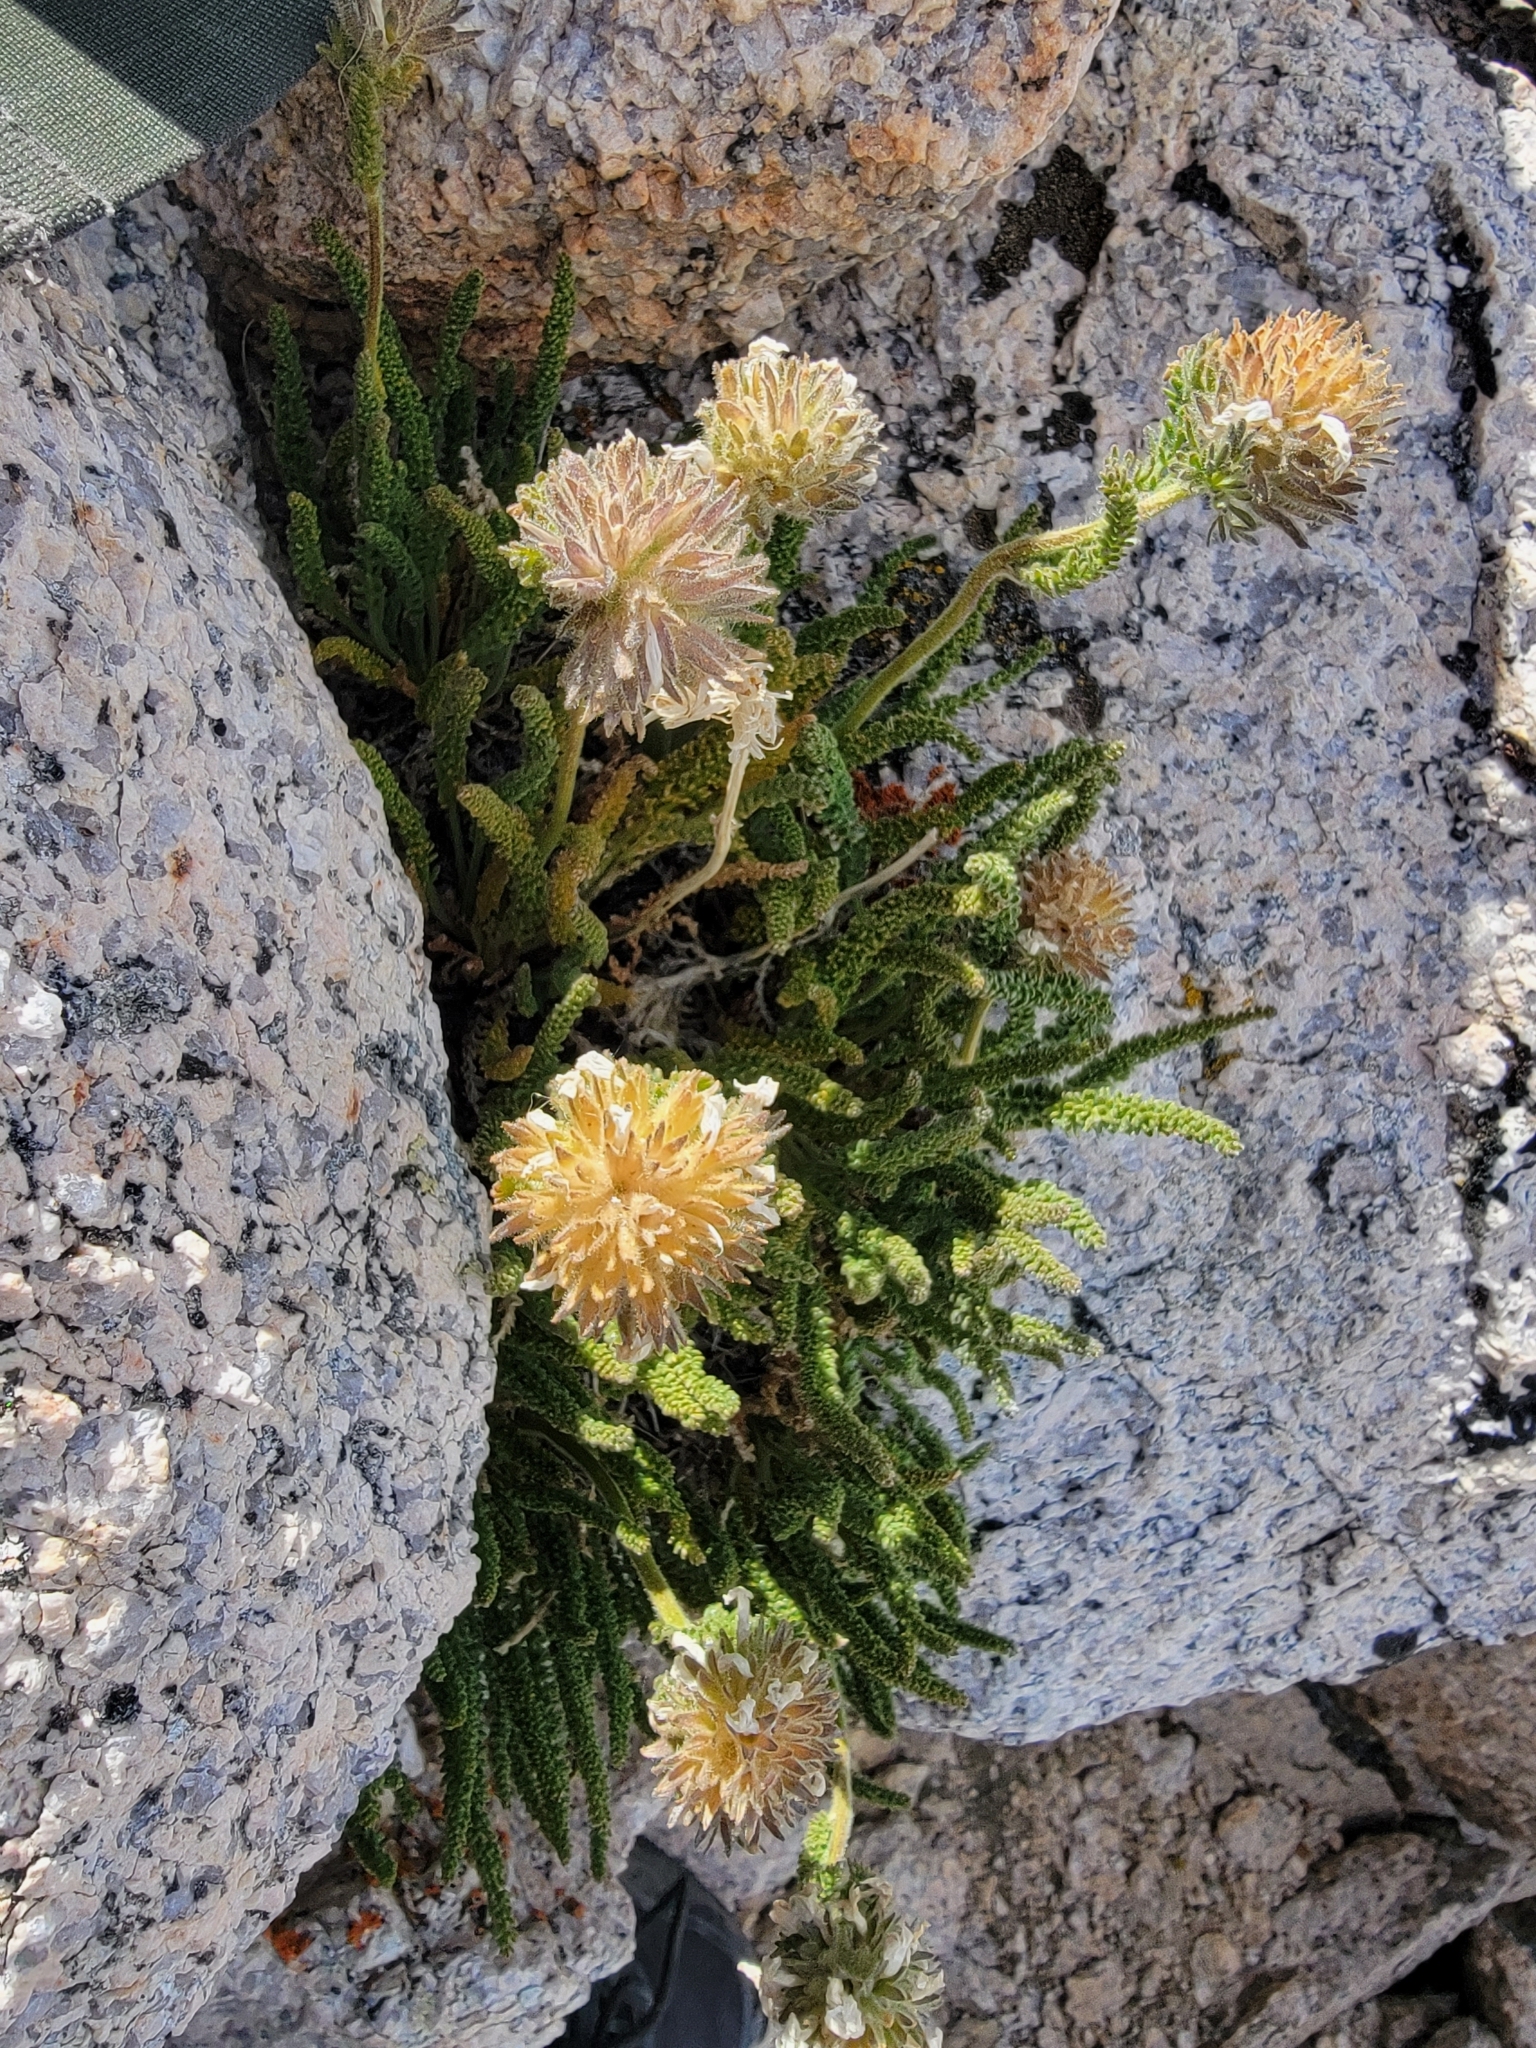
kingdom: Plantae
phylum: Tracheophyta
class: Magnoliopsida
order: Ericales
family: Polemoniaceae
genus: Polemonium
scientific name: Polemonium eximium
